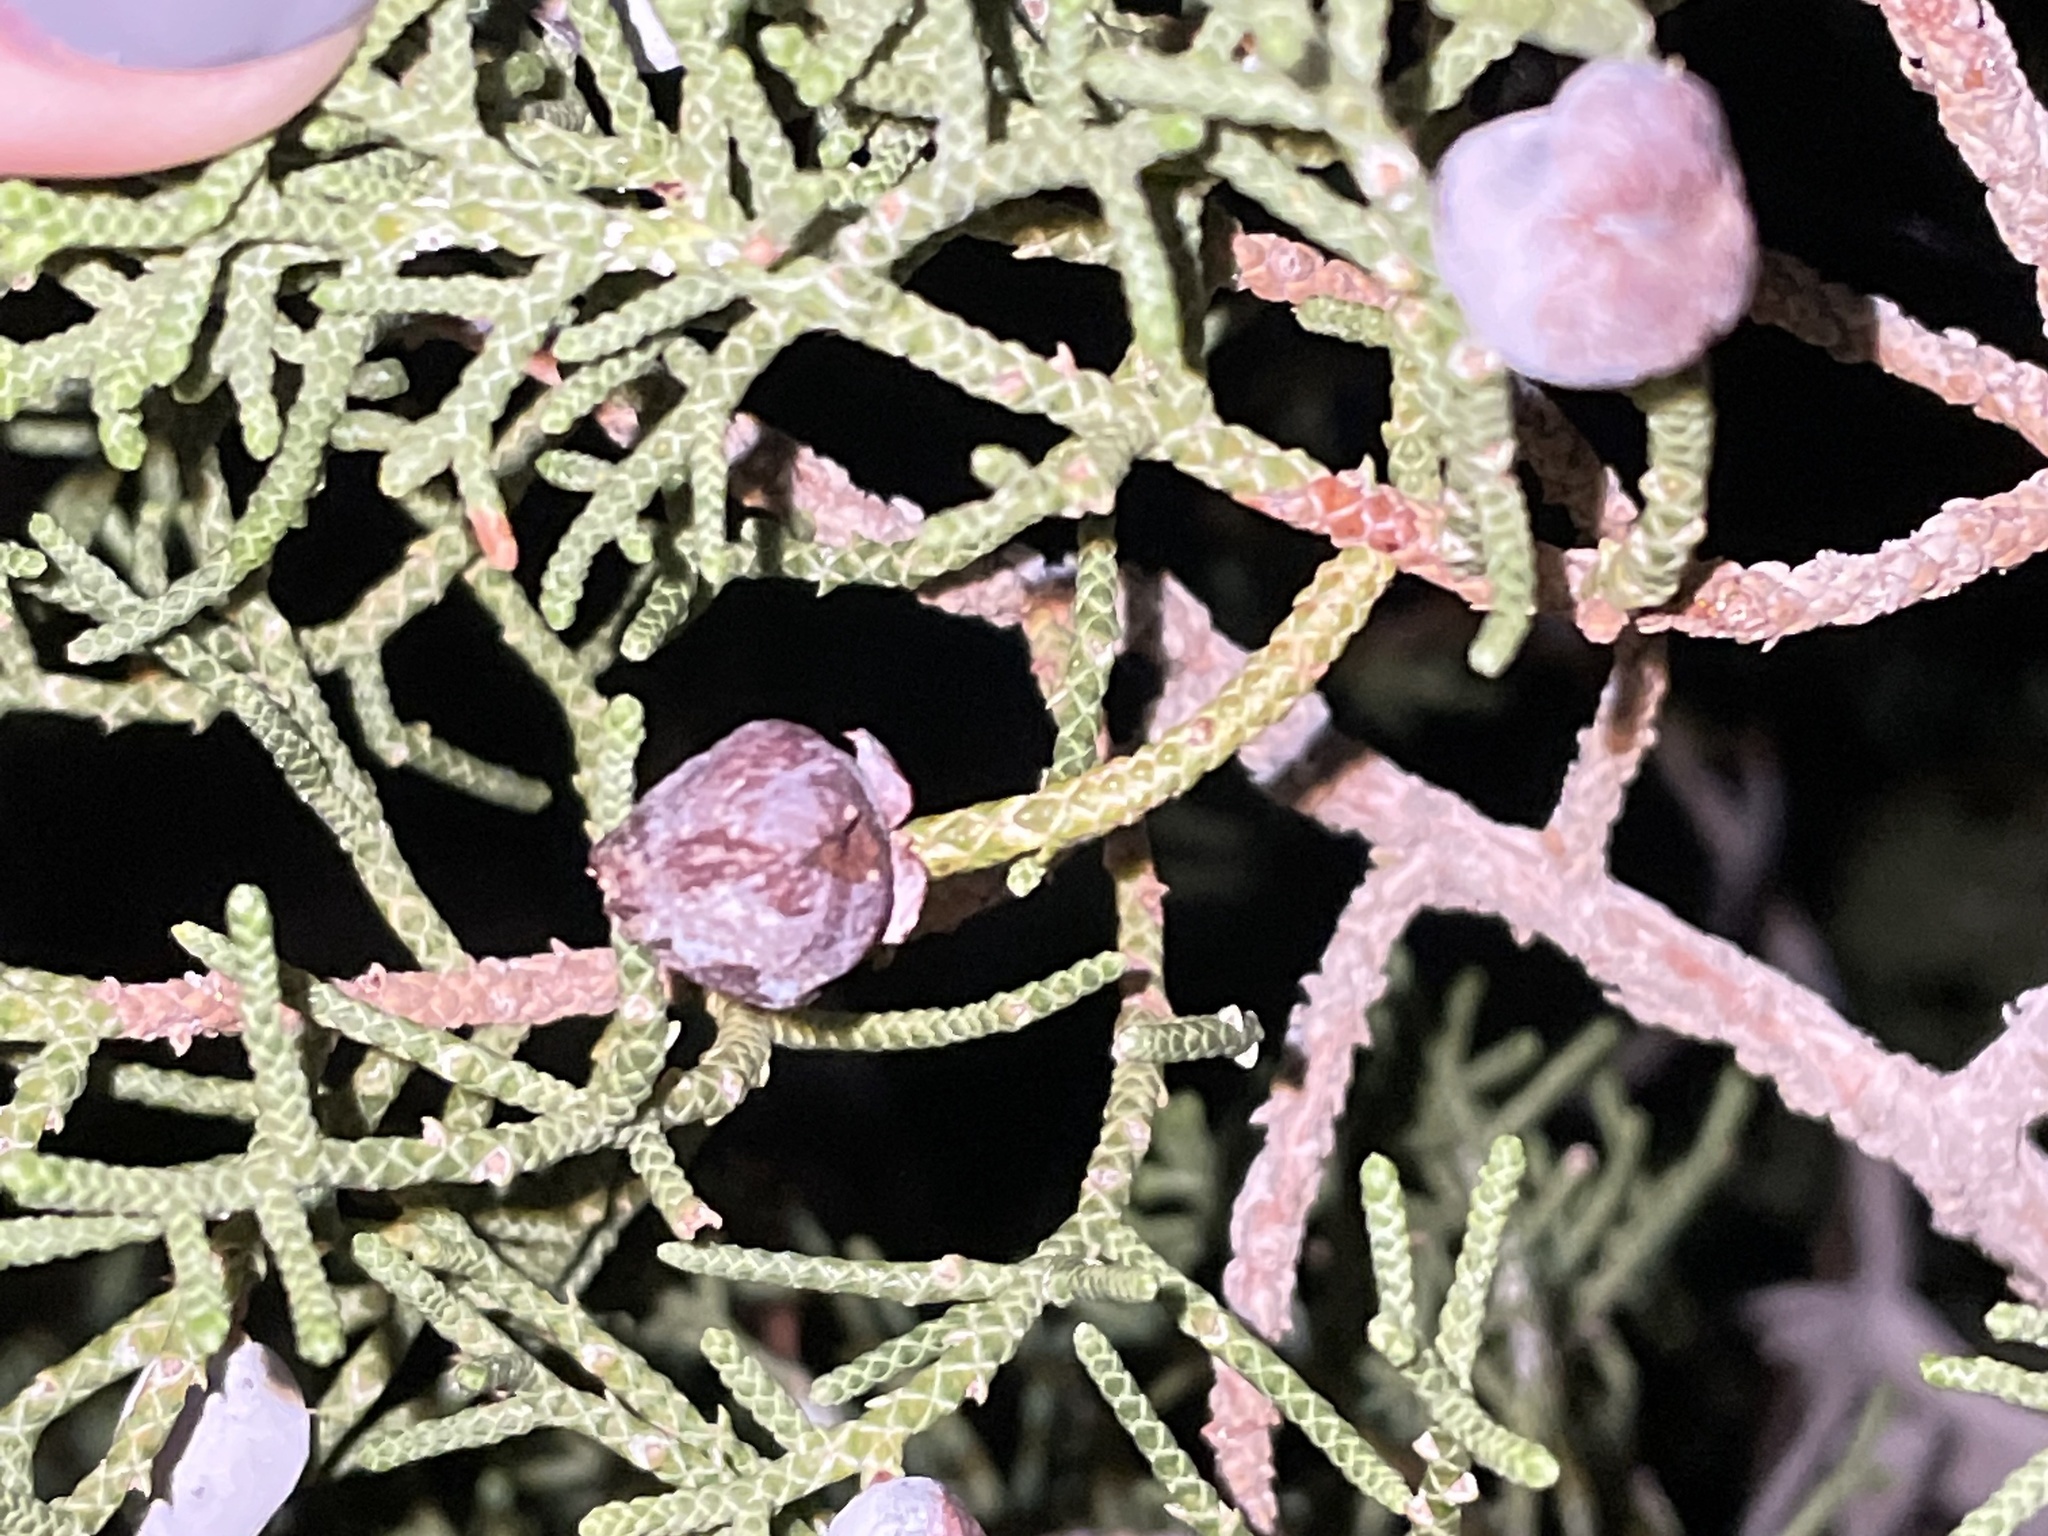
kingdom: Animalia
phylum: Arthropoda
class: Insecta
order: Diptera
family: Cecidomyiidae
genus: Walshomyia
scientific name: Walshomyia juniperina
